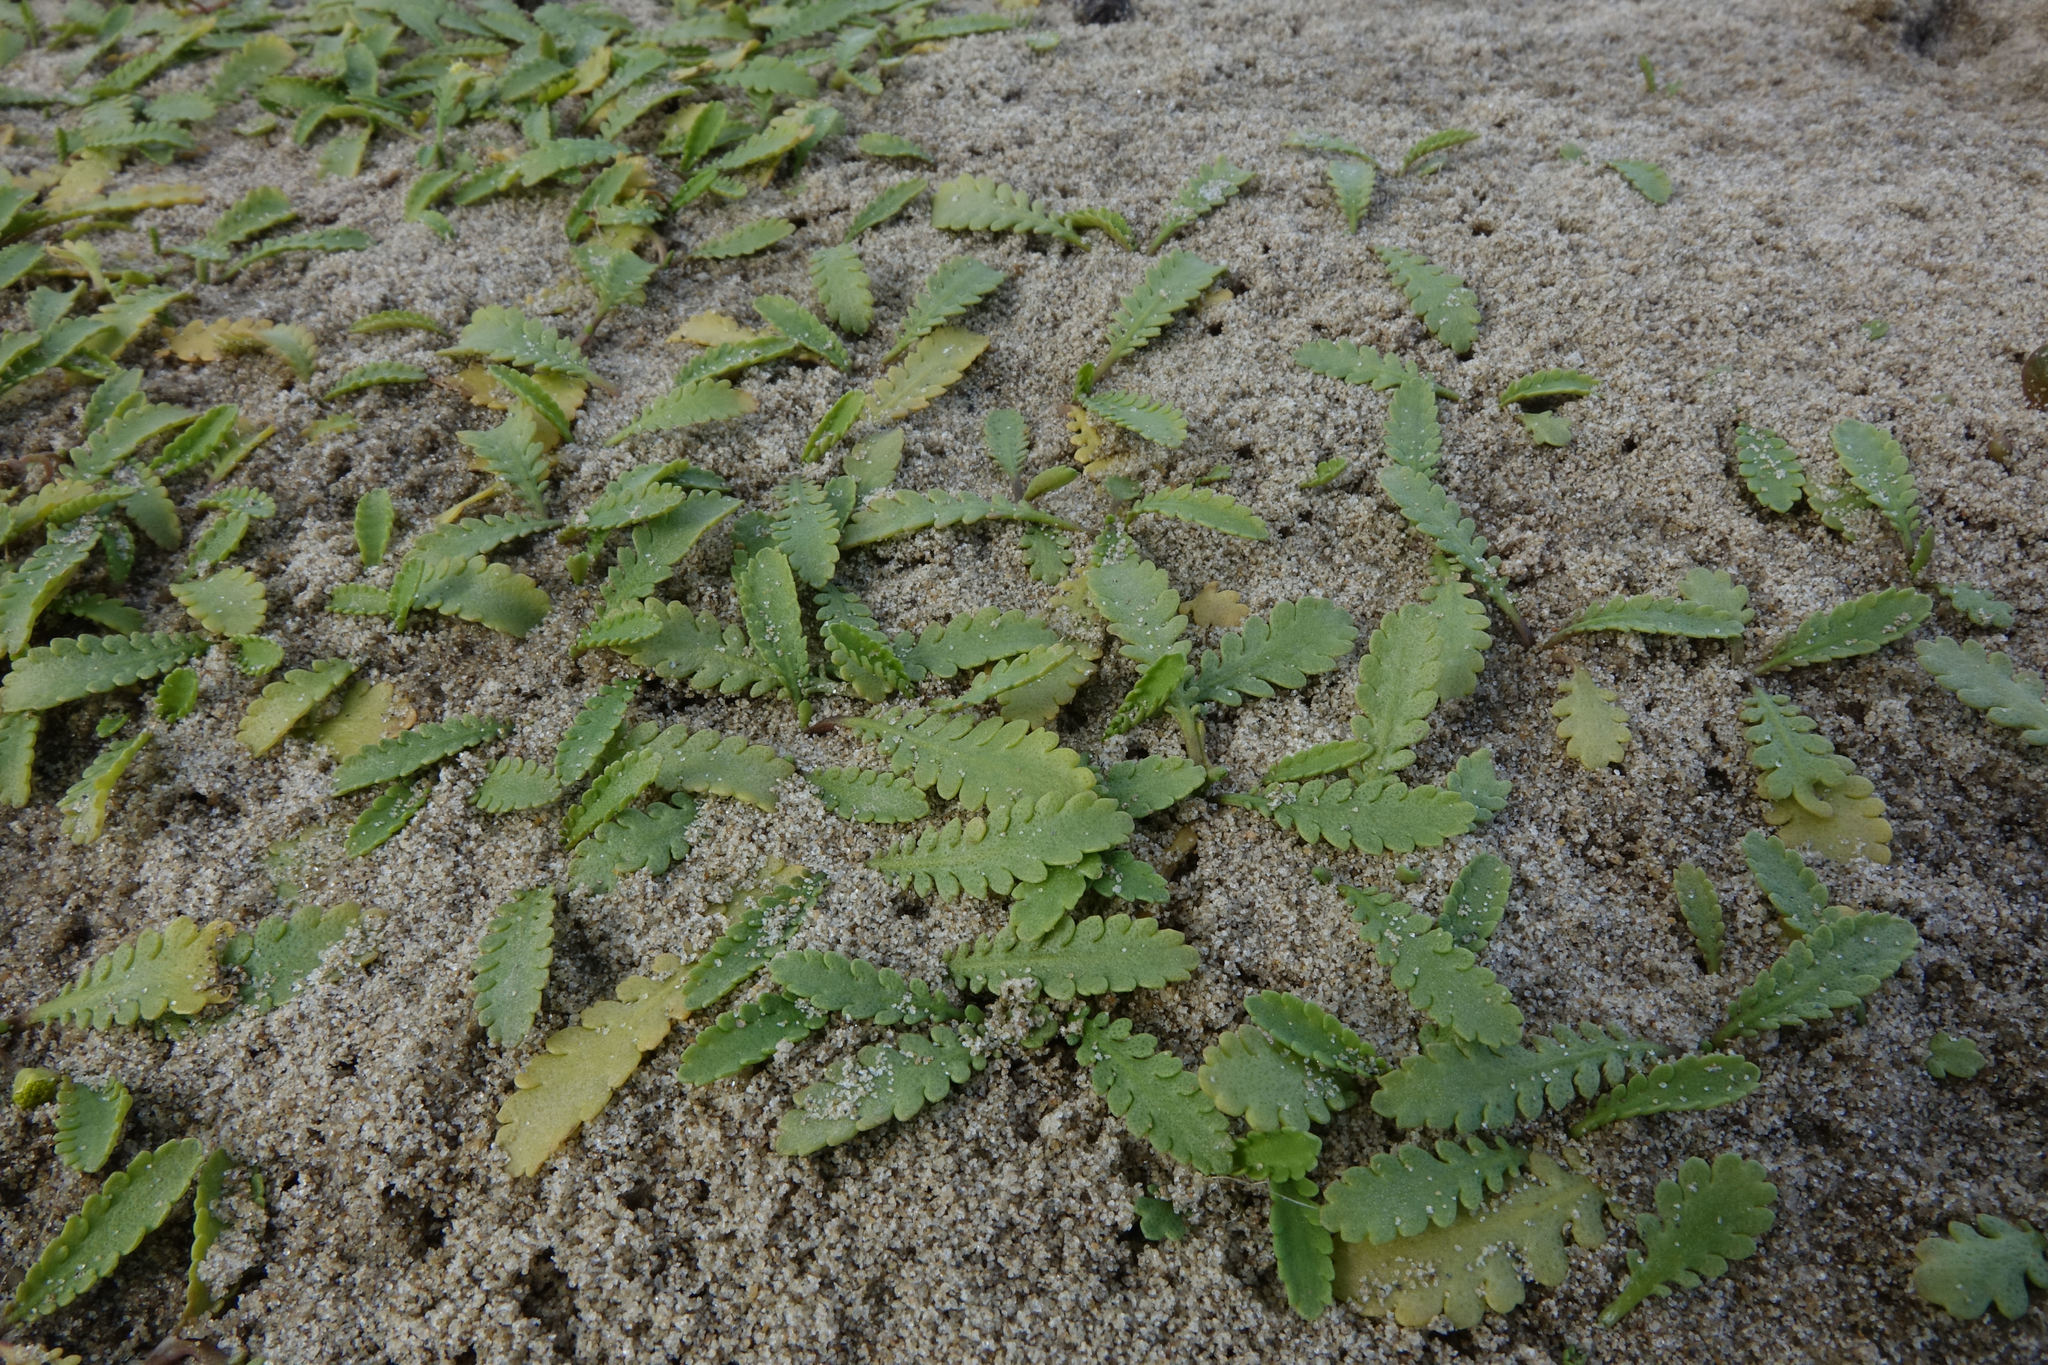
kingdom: Plantae
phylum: Tracheophyta
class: Magnoliopsida
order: Asterales
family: Asteraceae
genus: Leptinella
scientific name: Leptinella dioica
